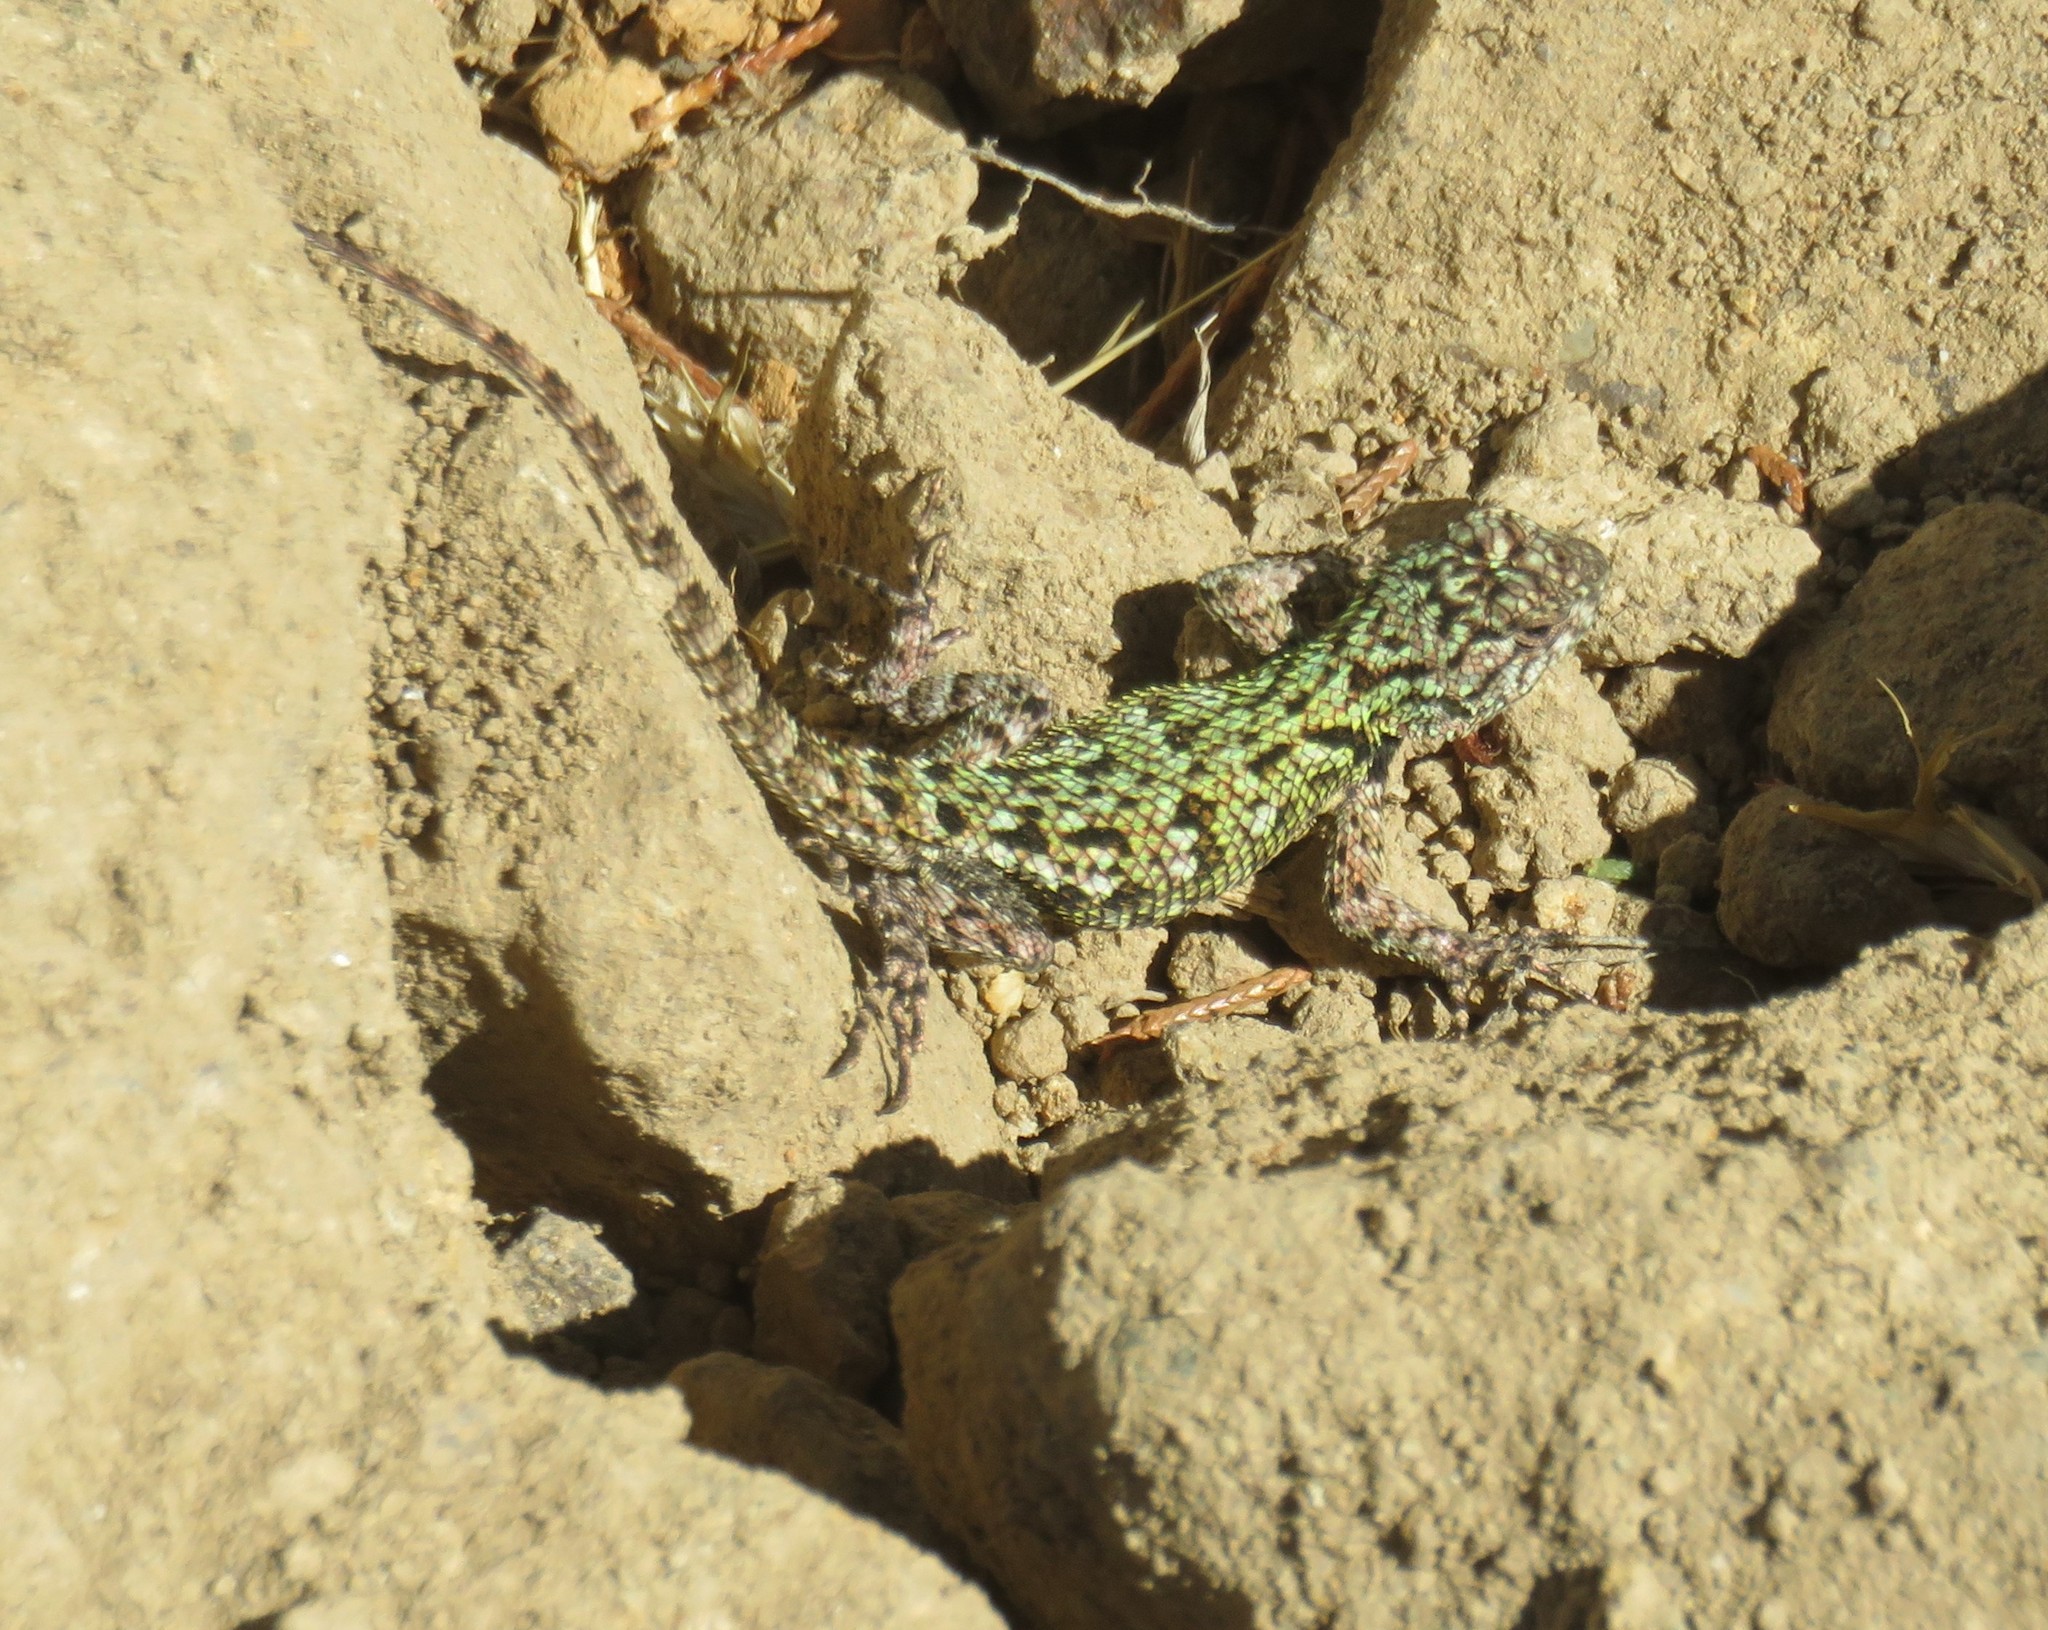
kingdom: Animalia
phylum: Chordata
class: Squamata
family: Phrynosomatidae
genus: Sceloporus
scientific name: Sceloporus malachiticus
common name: Green spiny lizard
